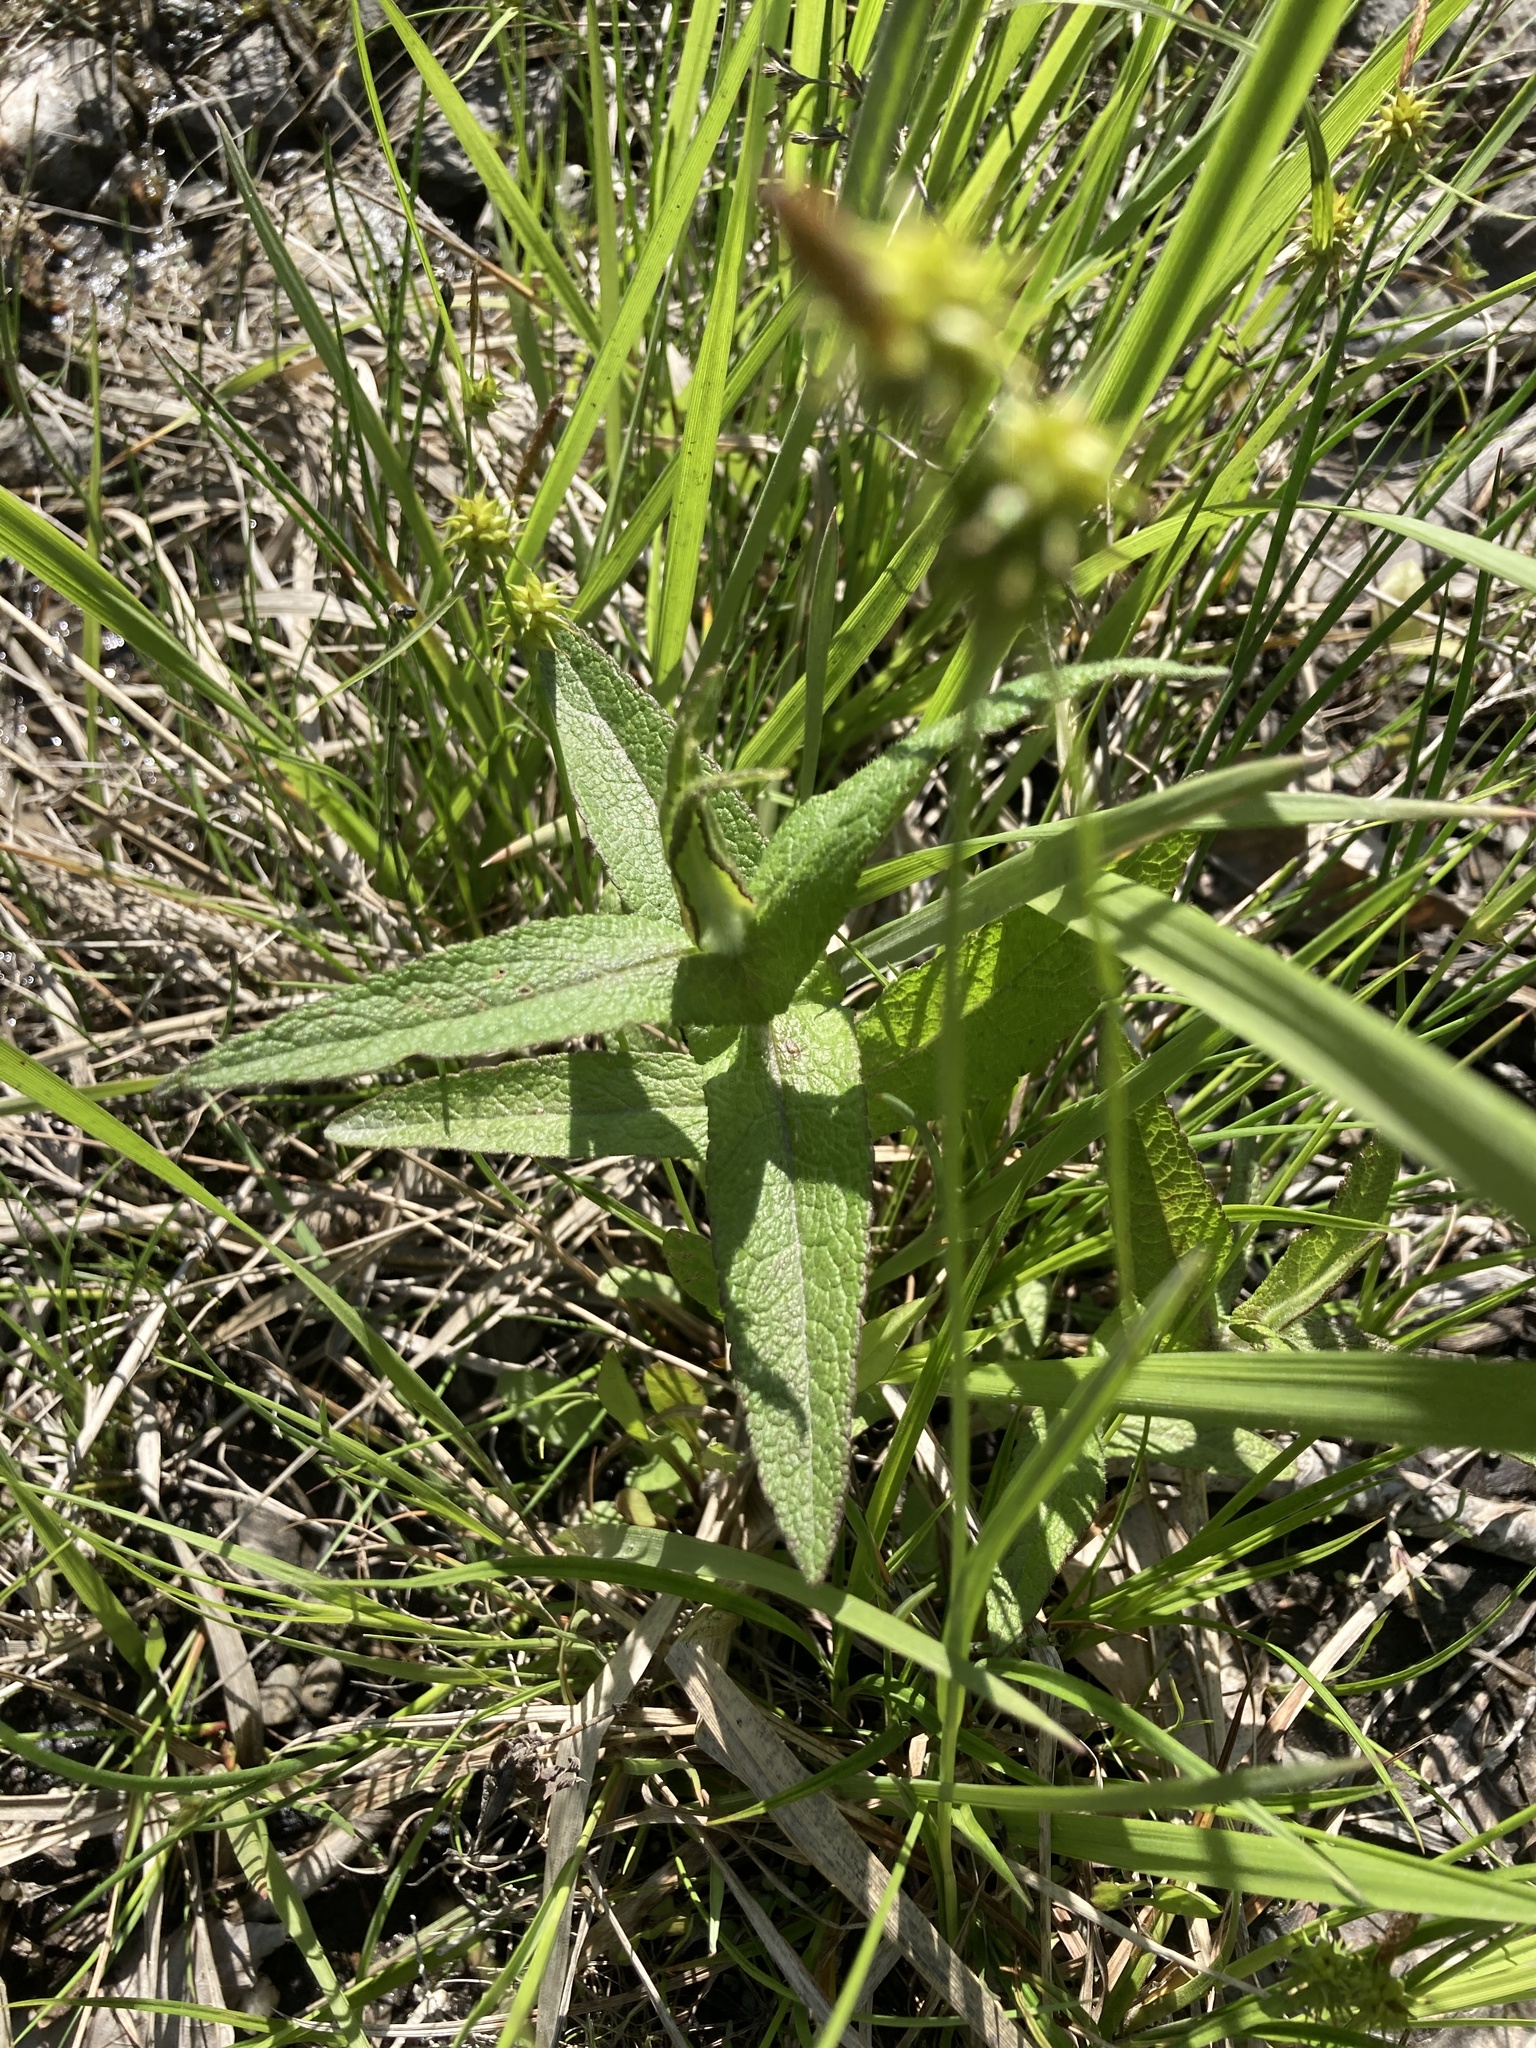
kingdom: Plantae
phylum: Tracheophyta
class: Magnoliopsida
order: Asterales
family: Asteraceae
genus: Eupatorium
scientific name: Eupatorium perfoliatum
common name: Boneset
